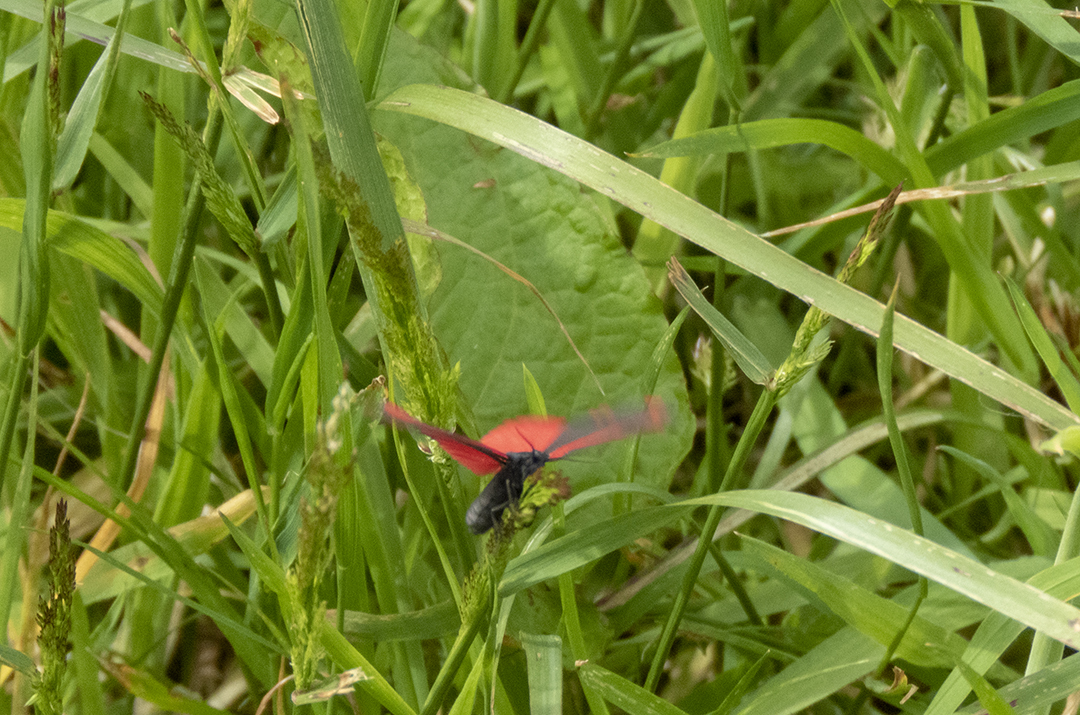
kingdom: Animalia
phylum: Arthropoda
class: Insecta
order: Lepidoptera
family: Erebidae
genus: Tyria
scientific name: Tyria jacobaeae
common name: Cinnabar
